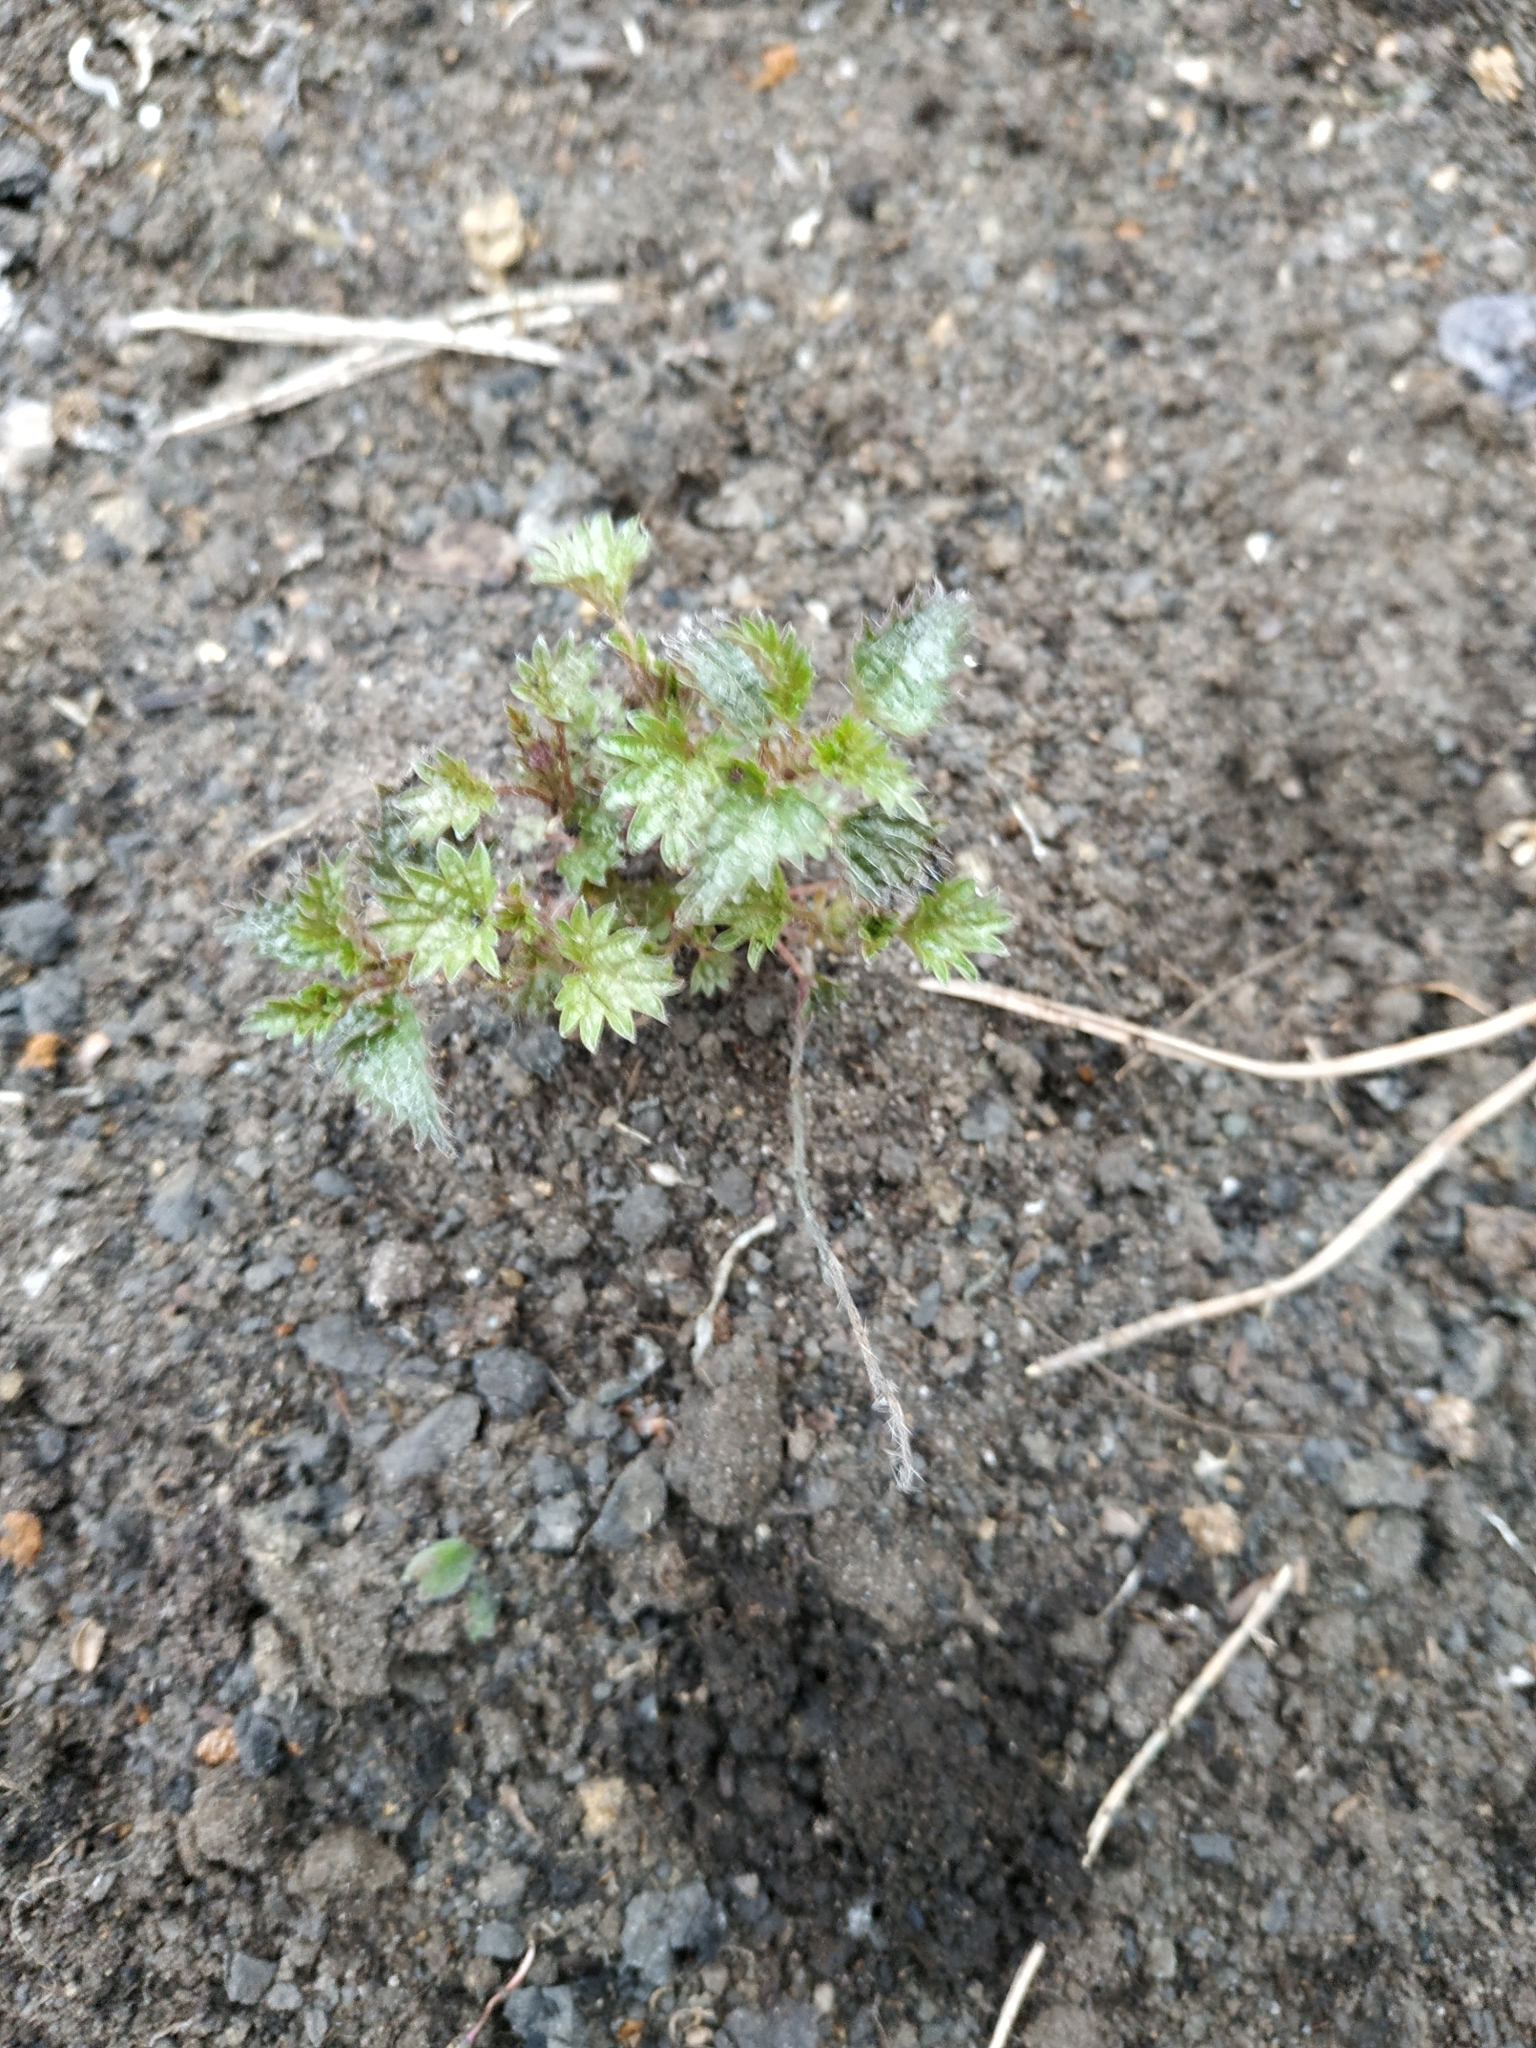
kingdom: Plantae
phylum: Tracheophyta
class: Magnoliopsida
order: Rosales
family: Urticaceae
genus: Urtica
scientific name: Urtica dioica
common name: Common nettle
